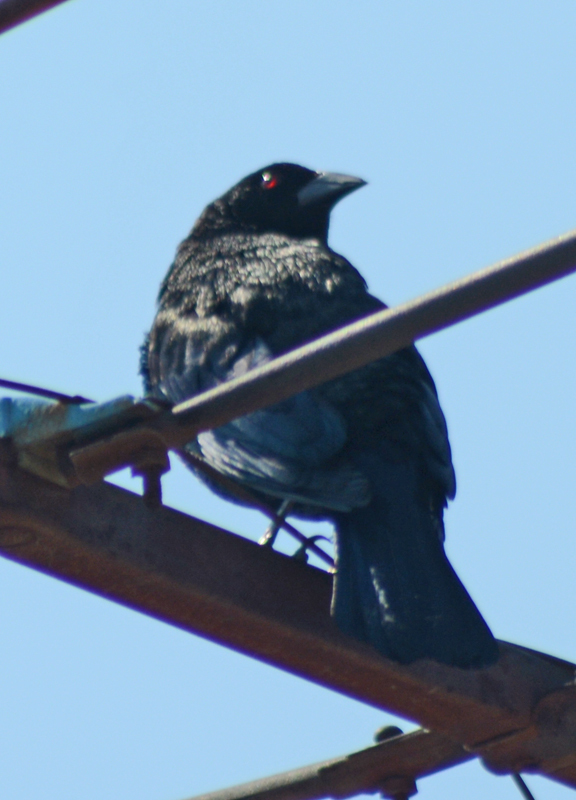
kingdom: Animalia
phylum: Chordata
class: Aves
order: Passeriformes
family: Icteridae
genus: Molothrus
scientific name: Molothrus aeneus
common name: Bronzed cowbird
